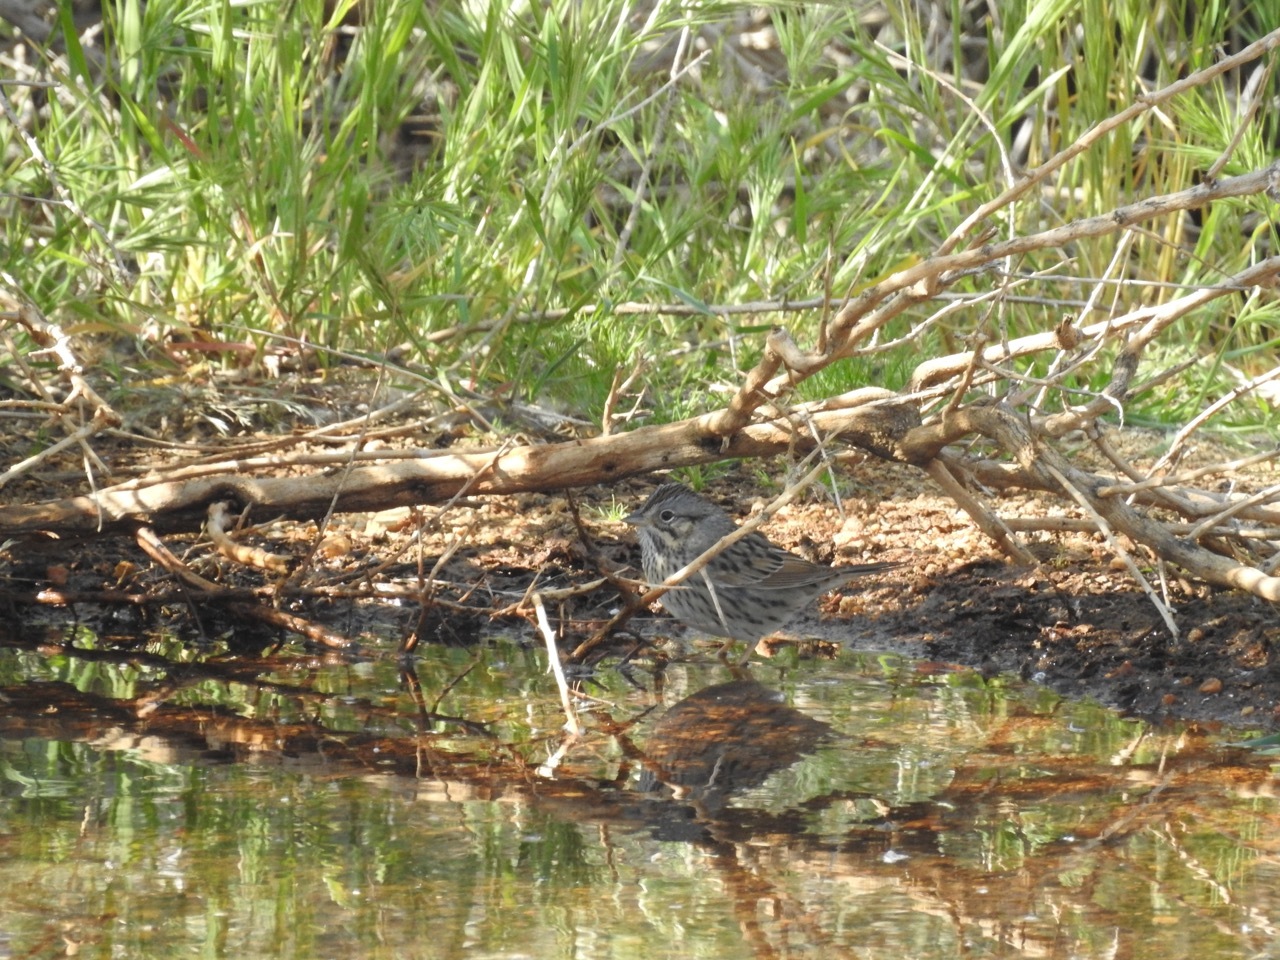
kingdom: Animalia
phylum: Chordata
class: Aves
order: Passeriformes
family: Passerellidae
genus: Melospiza
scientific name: Melospiza lincolnii
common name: Lincoln's sparrow
